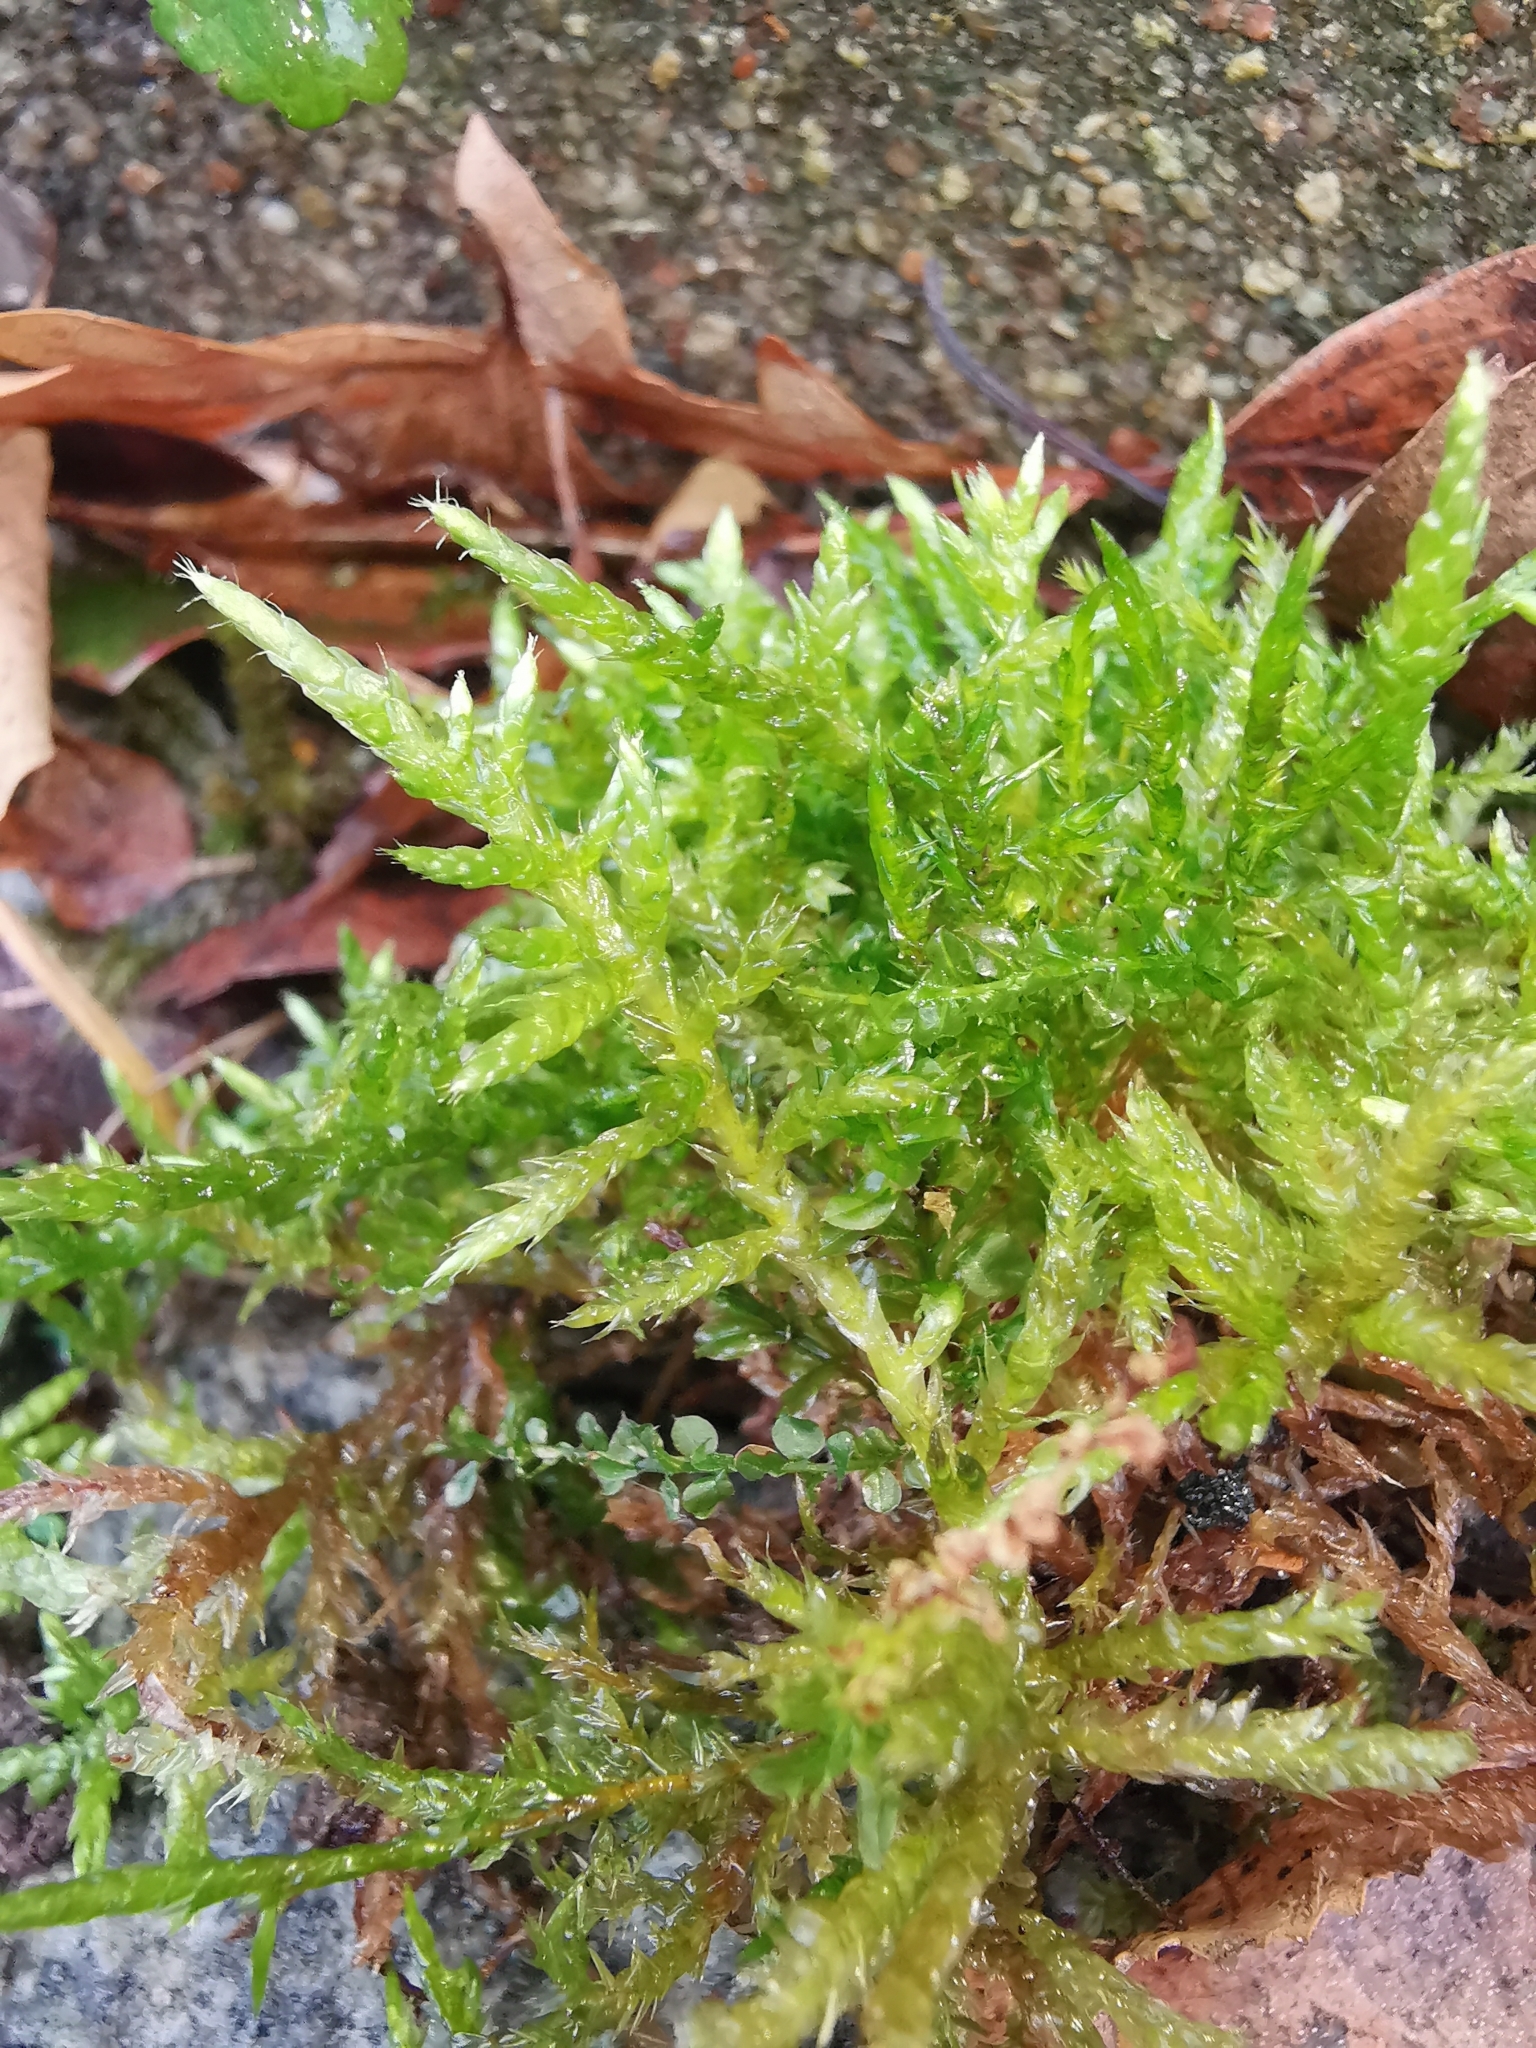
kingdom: Plantae
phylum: Bryophyta
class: Bryopsida
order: Hypnales
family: Brachytheciaceae
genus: Cirriphyllum
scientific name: Cirriphyllum piliferum
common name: Hair-pointed moss
